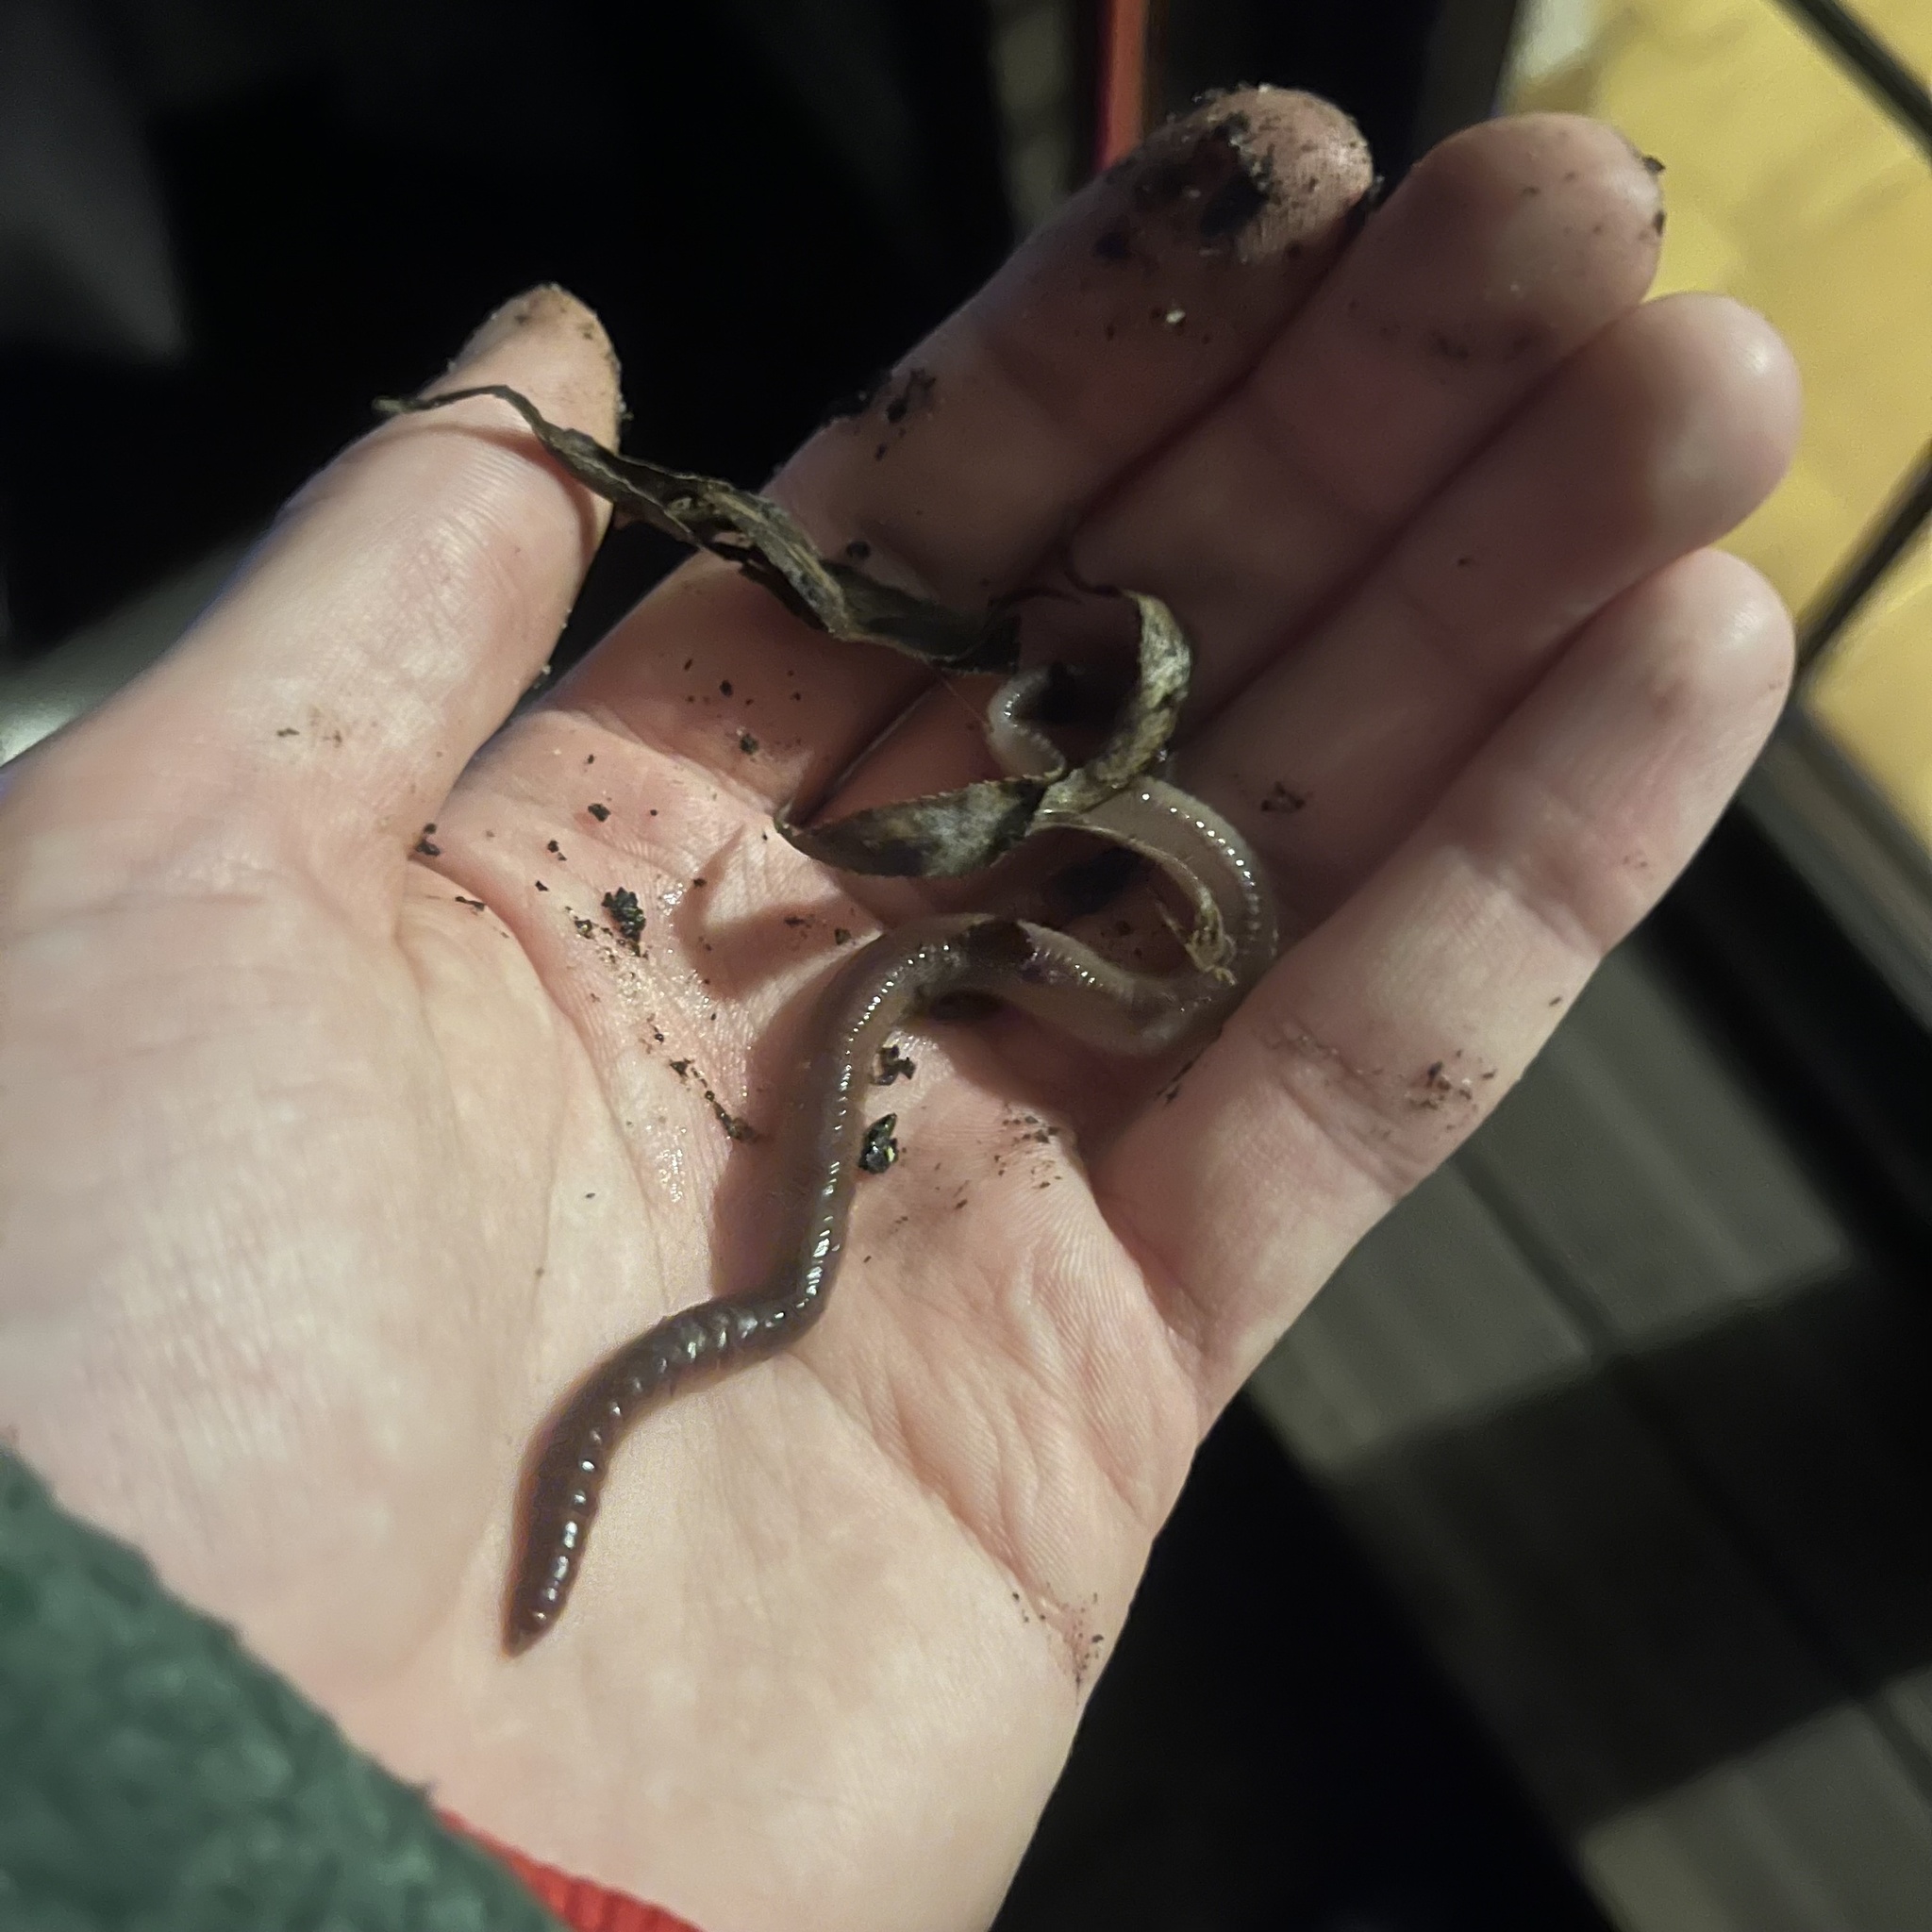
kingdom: Animalia
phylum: Annelida
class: Clitellata
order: Crassiclitellata
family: Lumbricidae
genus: Lumbricus
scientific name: Lumbricus terrestris
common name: Common earthworm
